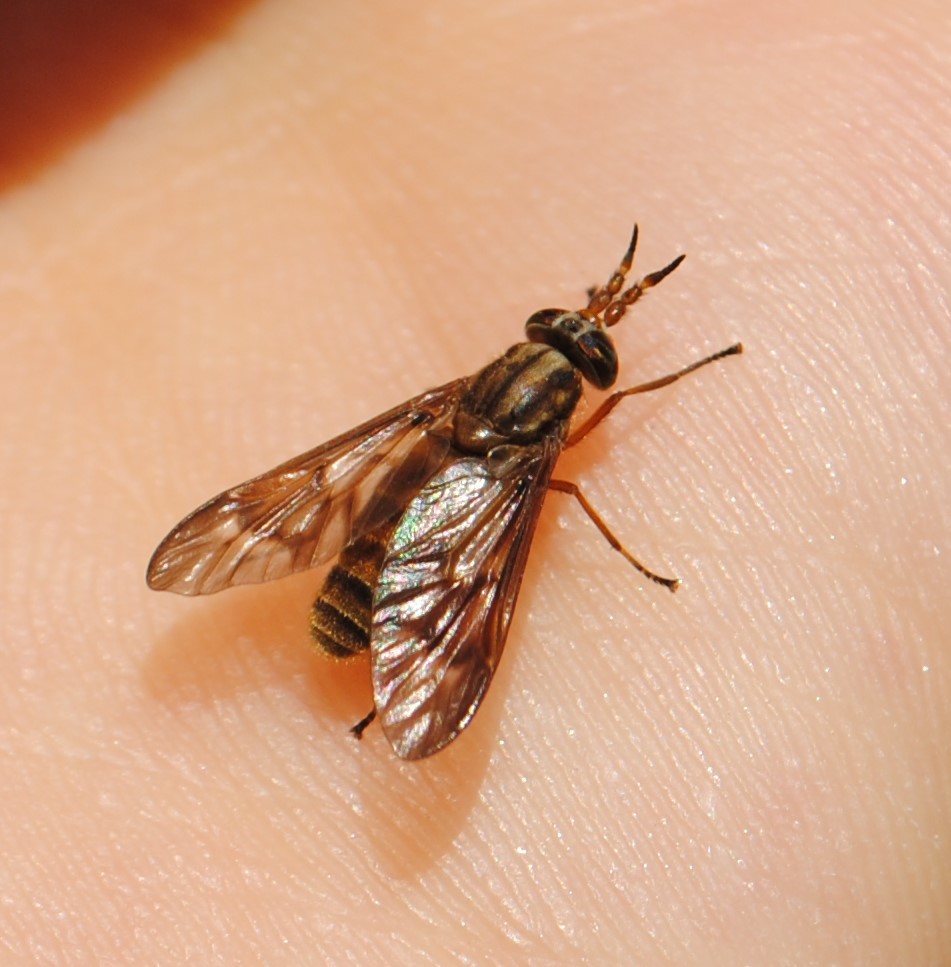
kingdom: Animalia
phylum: Arthropoda
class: Insecta
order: Diptera
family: Tabanidae
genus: Chrysops
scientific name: Chrysops brunneus
